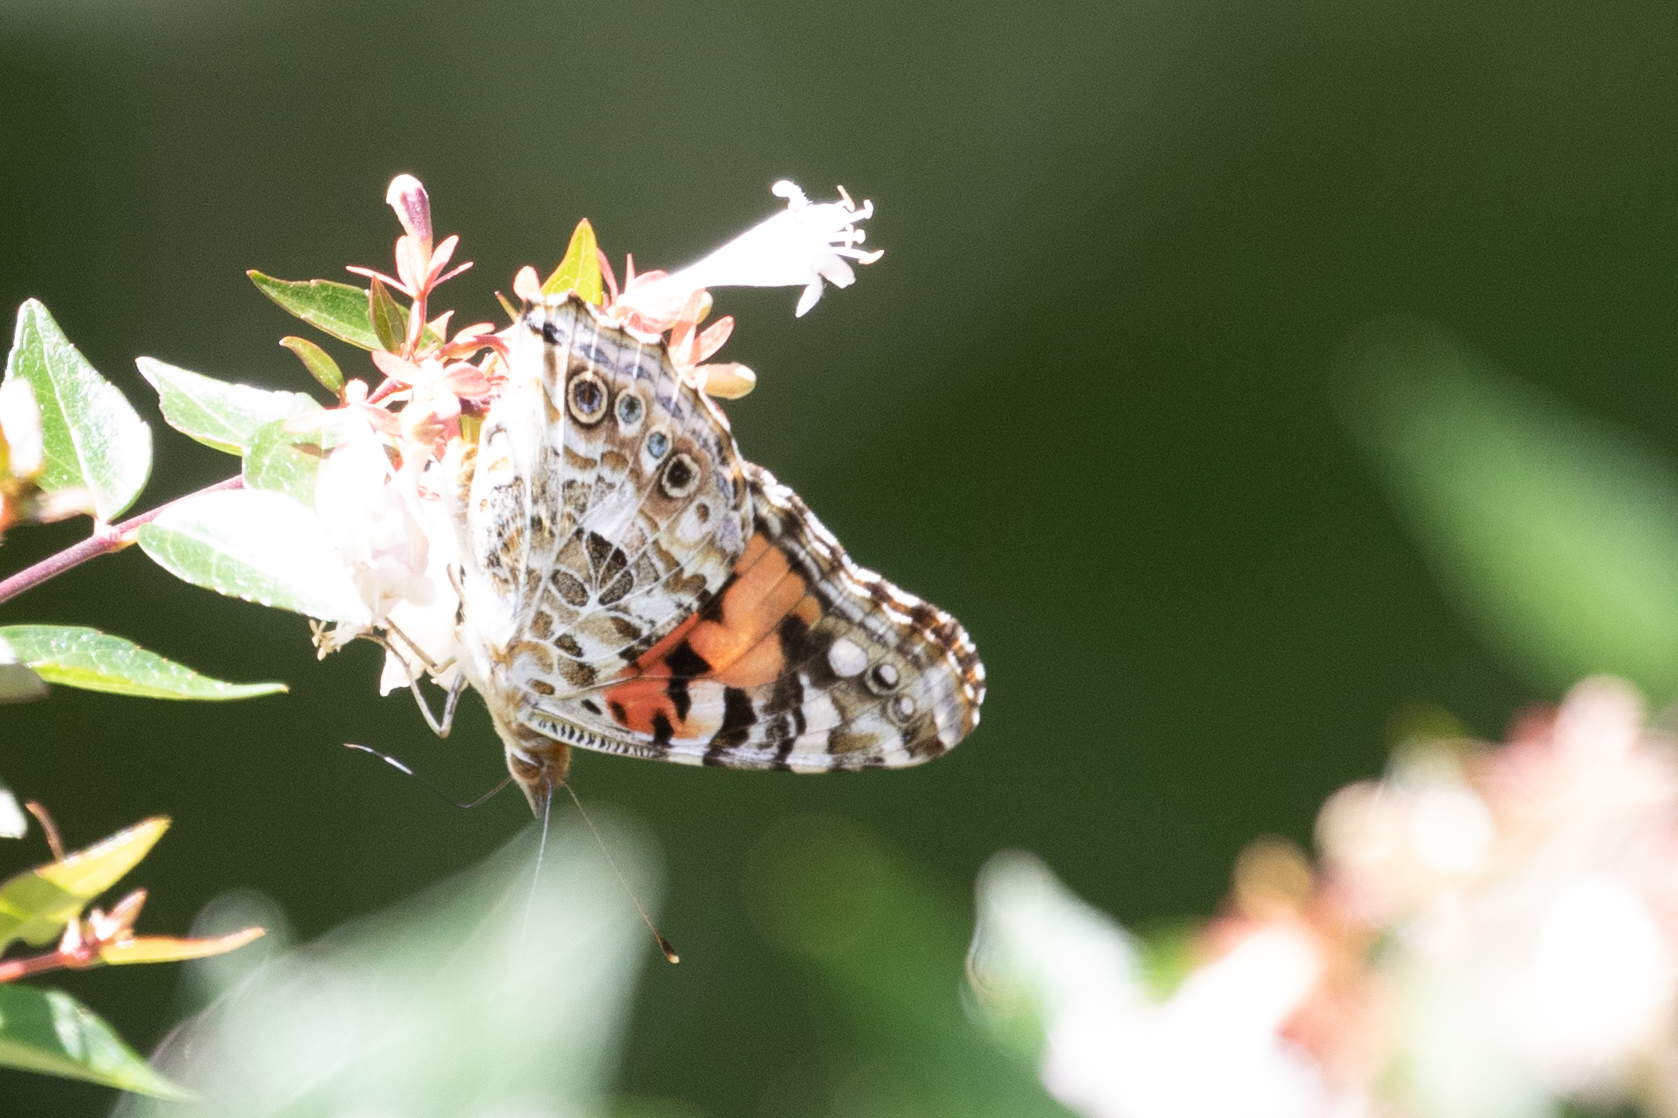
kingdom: Animalia
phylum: Arthropoda
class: Insecta
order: Lepidoptera
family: Nymphalidae
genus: Vanessa
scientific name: Vanessa cardui
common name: Painted lady
